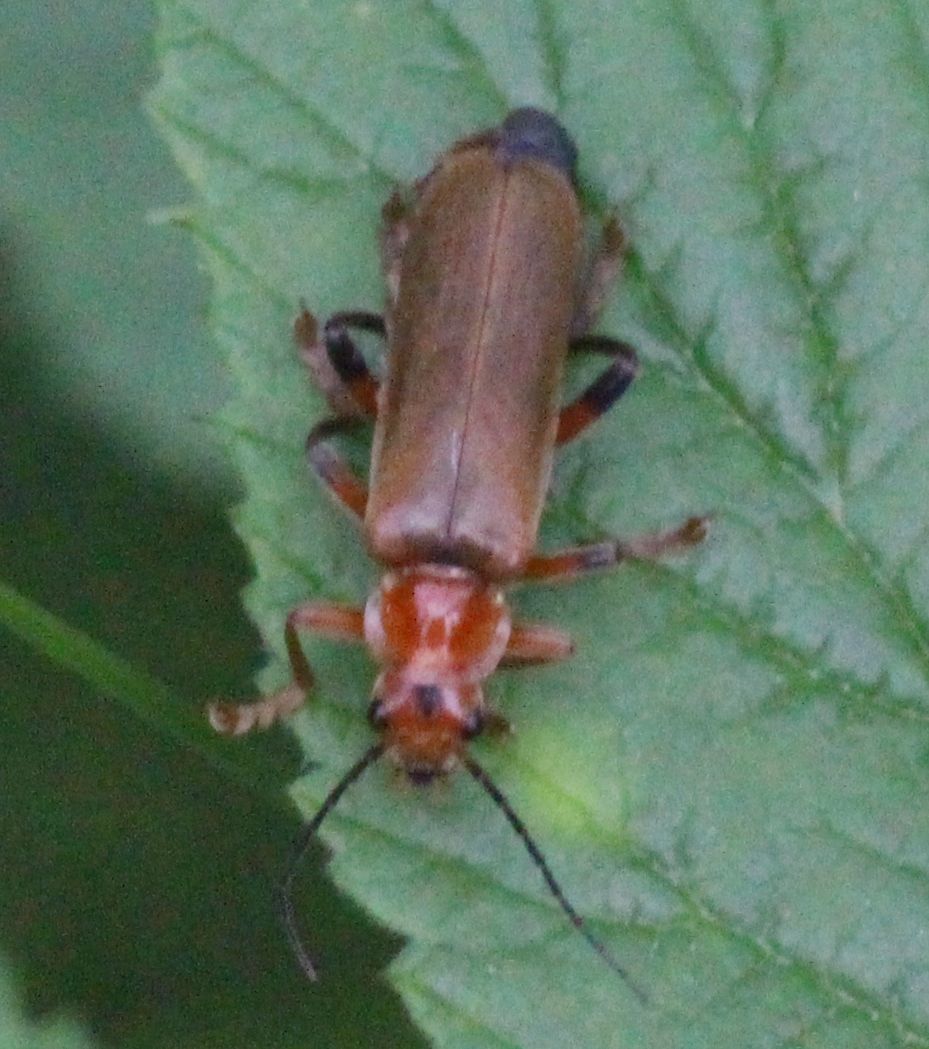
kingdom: Animalia
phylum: Arthropoda
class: Insecta
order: Coleoptera
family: Cantharidae
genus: Cantharis
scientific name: Cantharis livida
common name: Livid soldier beetle
